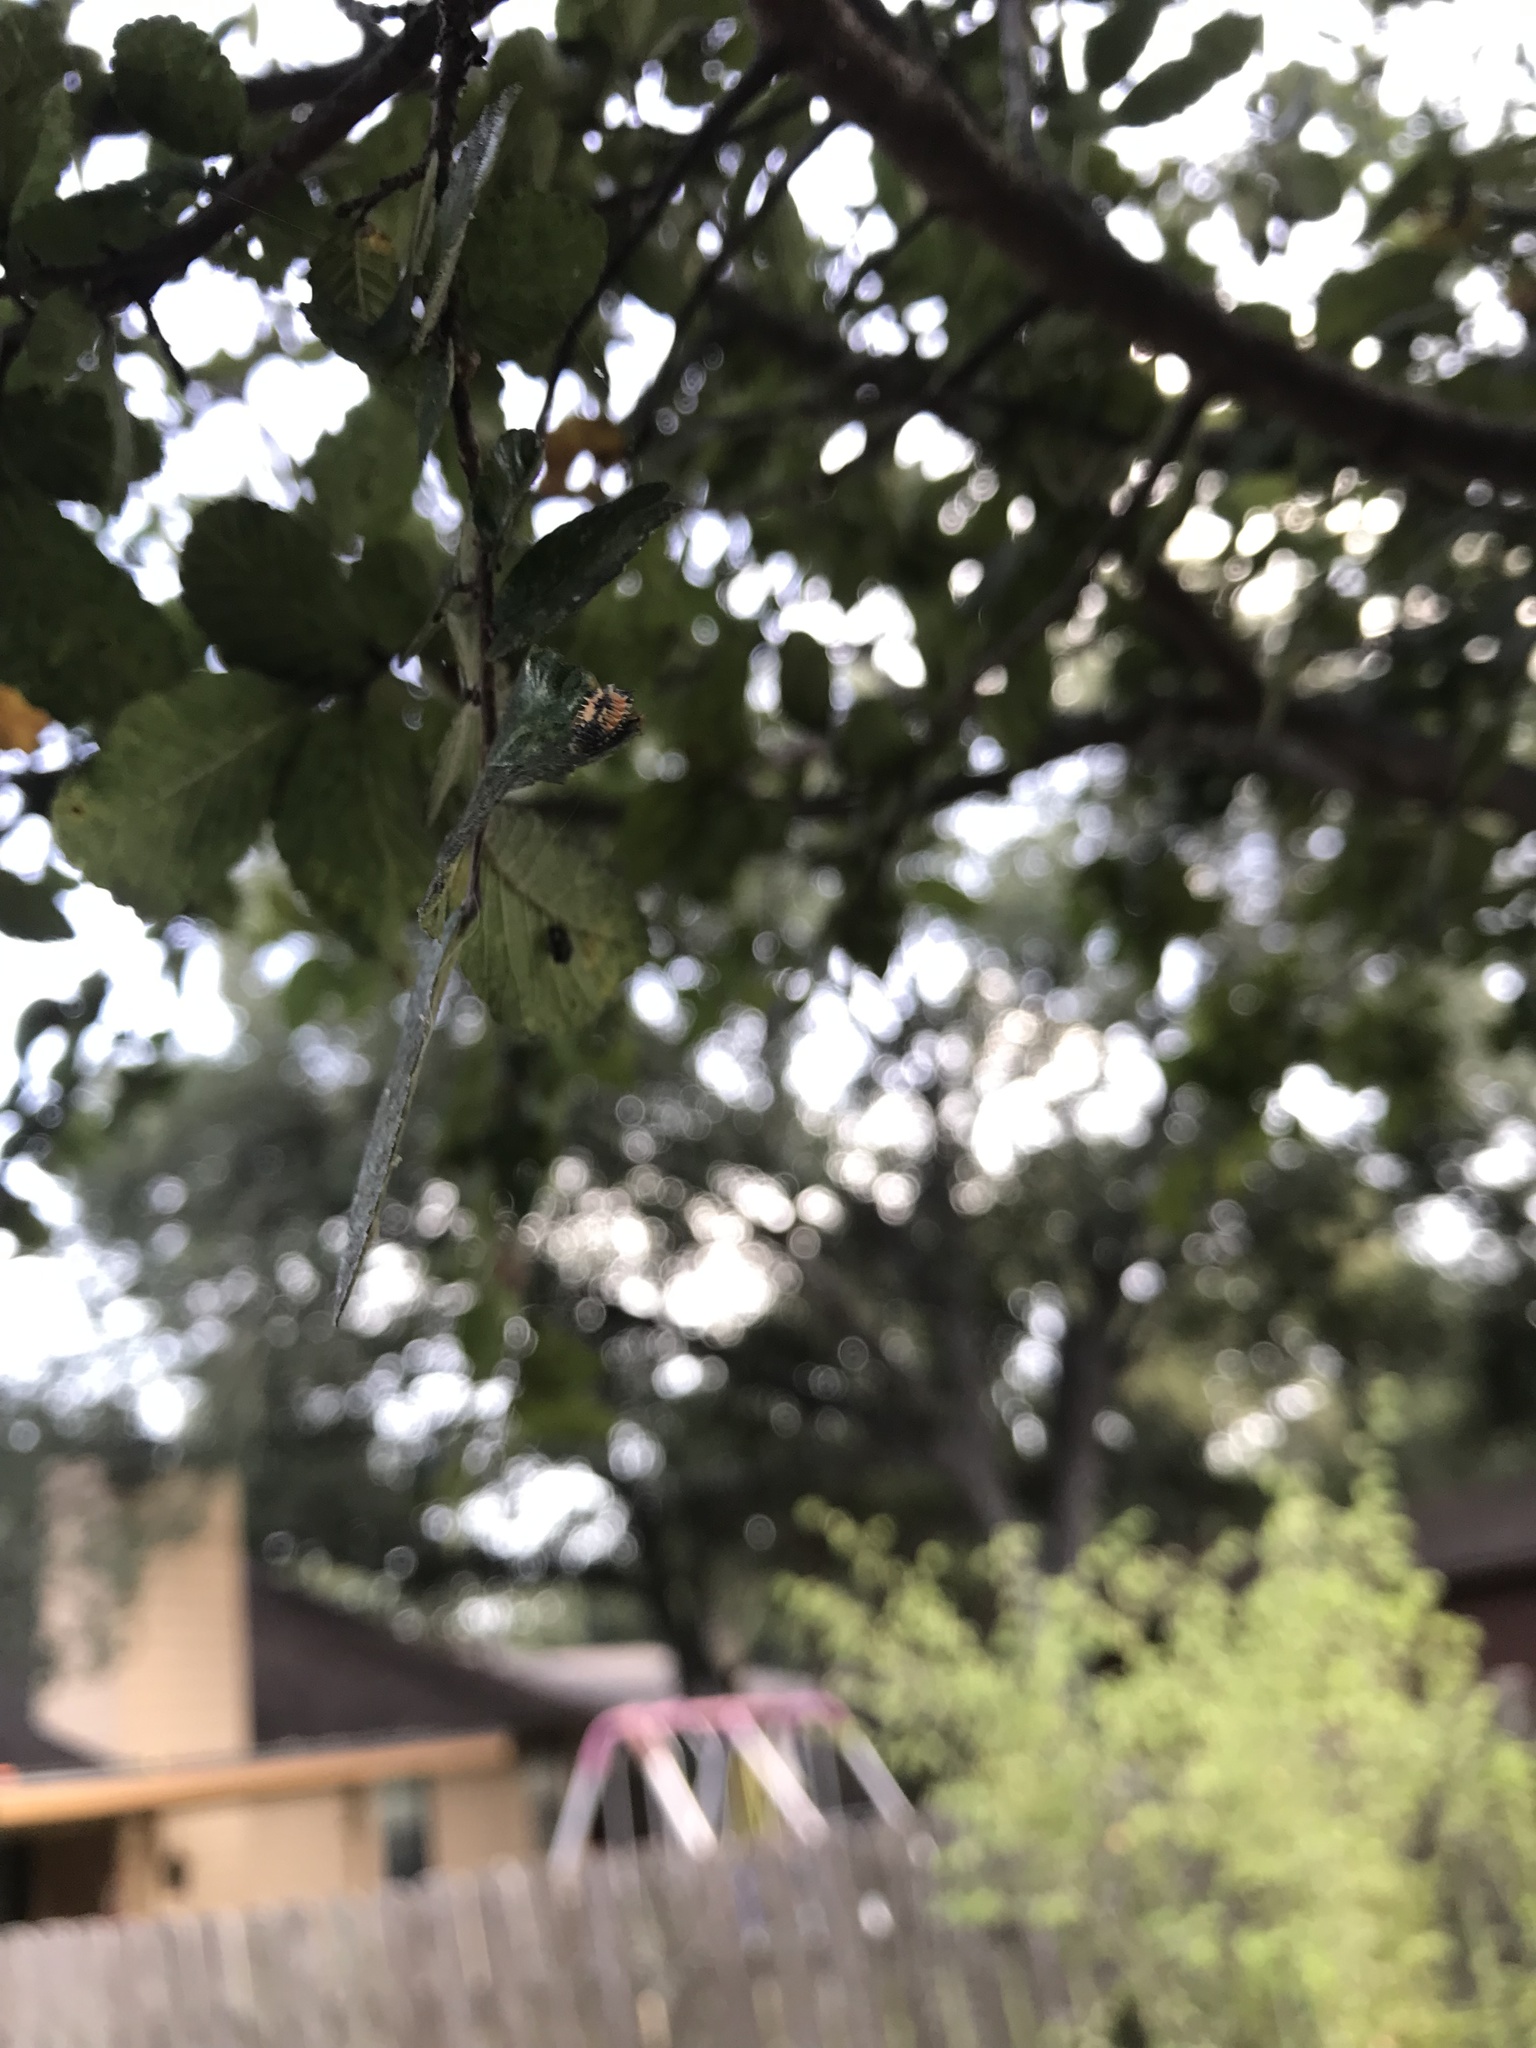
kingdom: Animalia
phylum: Arthropoda
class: Insecta
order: Coleoptera
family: Coccinellidae
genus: Harmonia
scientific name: Harmonia axyridis
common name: Harlequin ladybird
